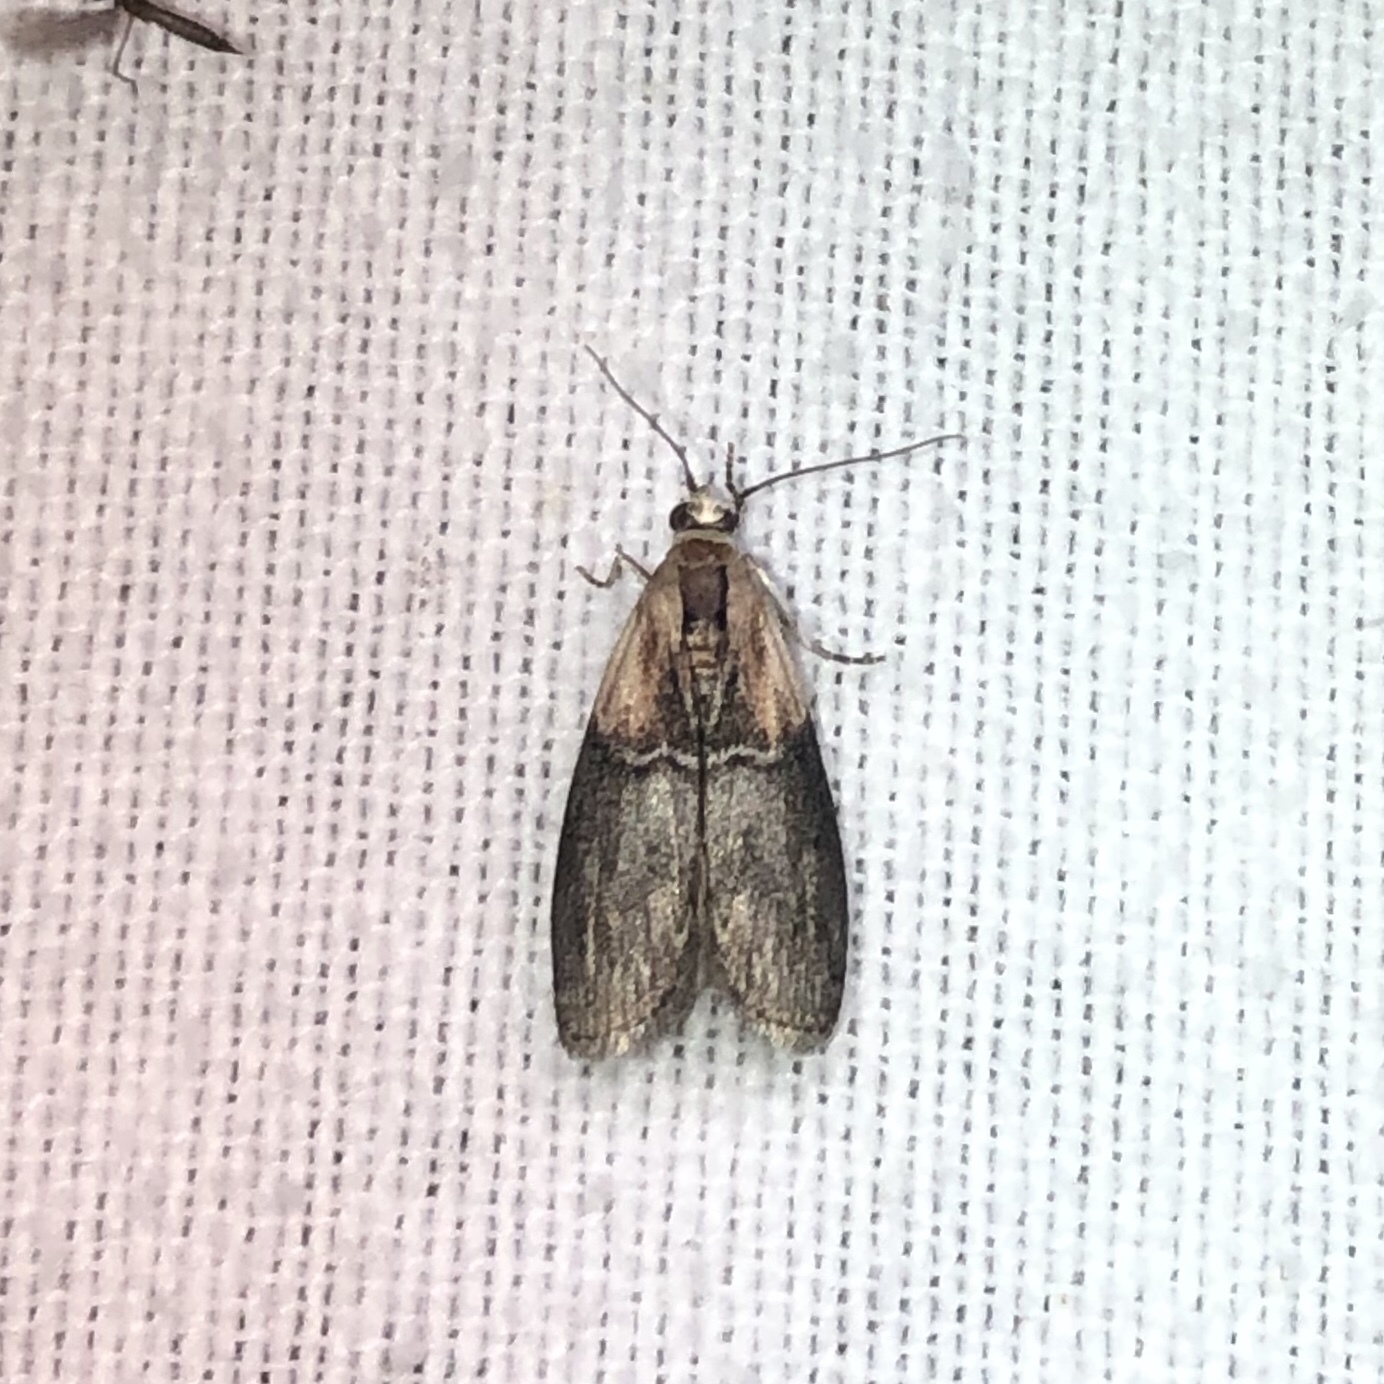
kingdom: Animalia
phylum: Arthropoda
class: Insecta
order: Lepidoptera
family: Pyralidae
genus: Sciota
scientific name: Sciota basilaris
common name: Yellow-shouldered leafroller
